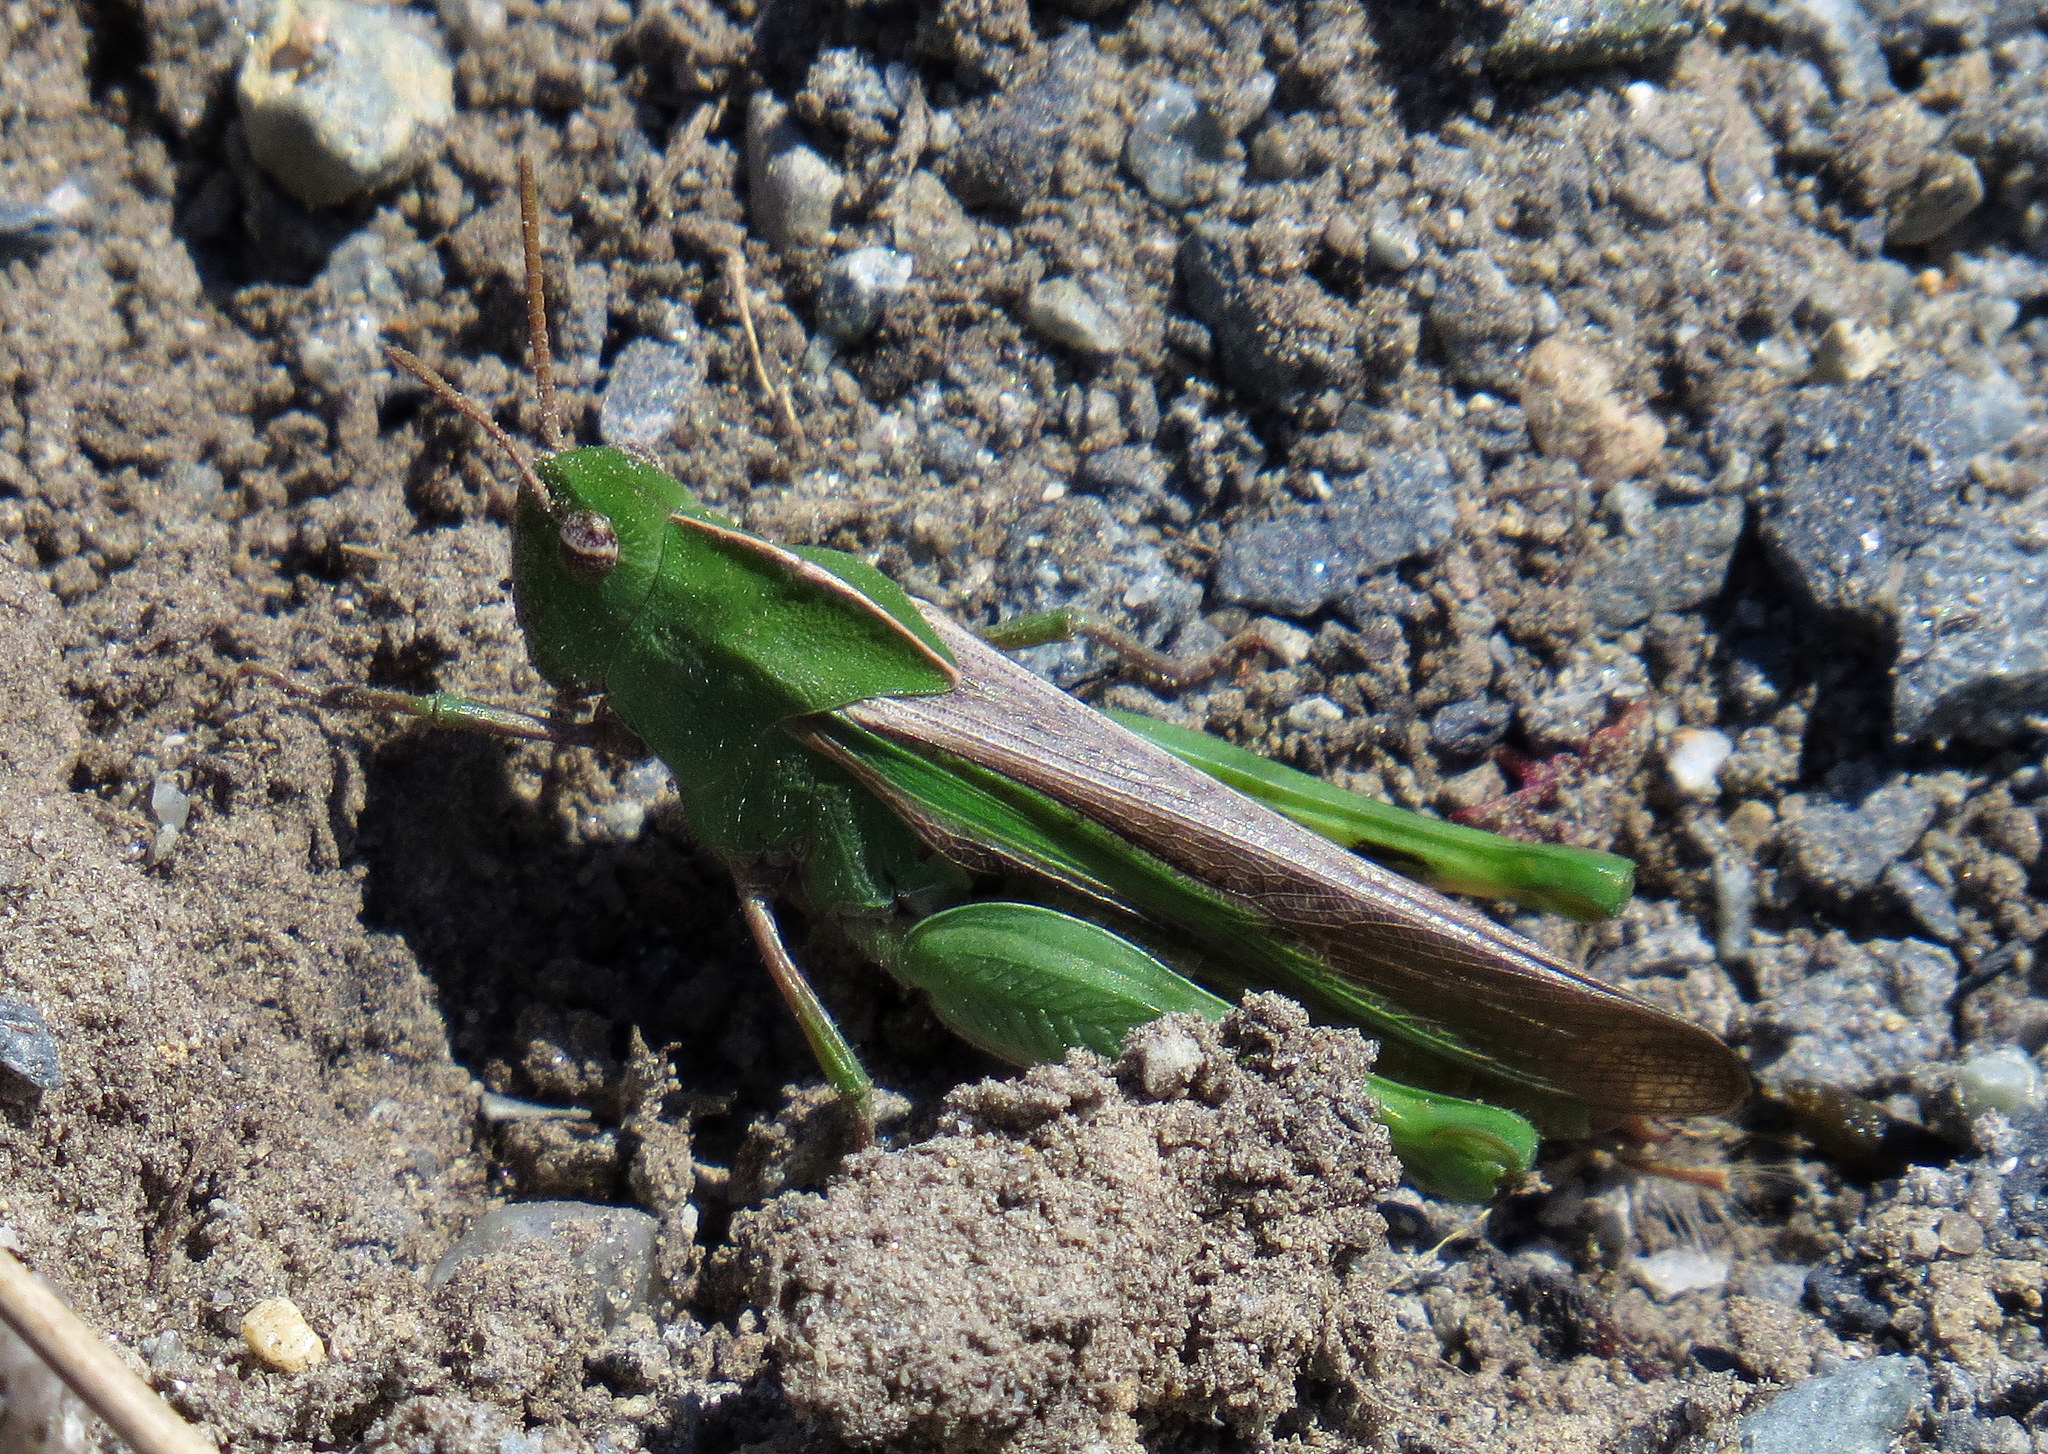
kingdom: Animalia
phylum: Arthropoda
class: Insecta
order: Orthoptera
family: Acrididae
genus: Chortophaga
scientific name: Chortophaga viridifasciata
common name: Green-striped grasshopper
